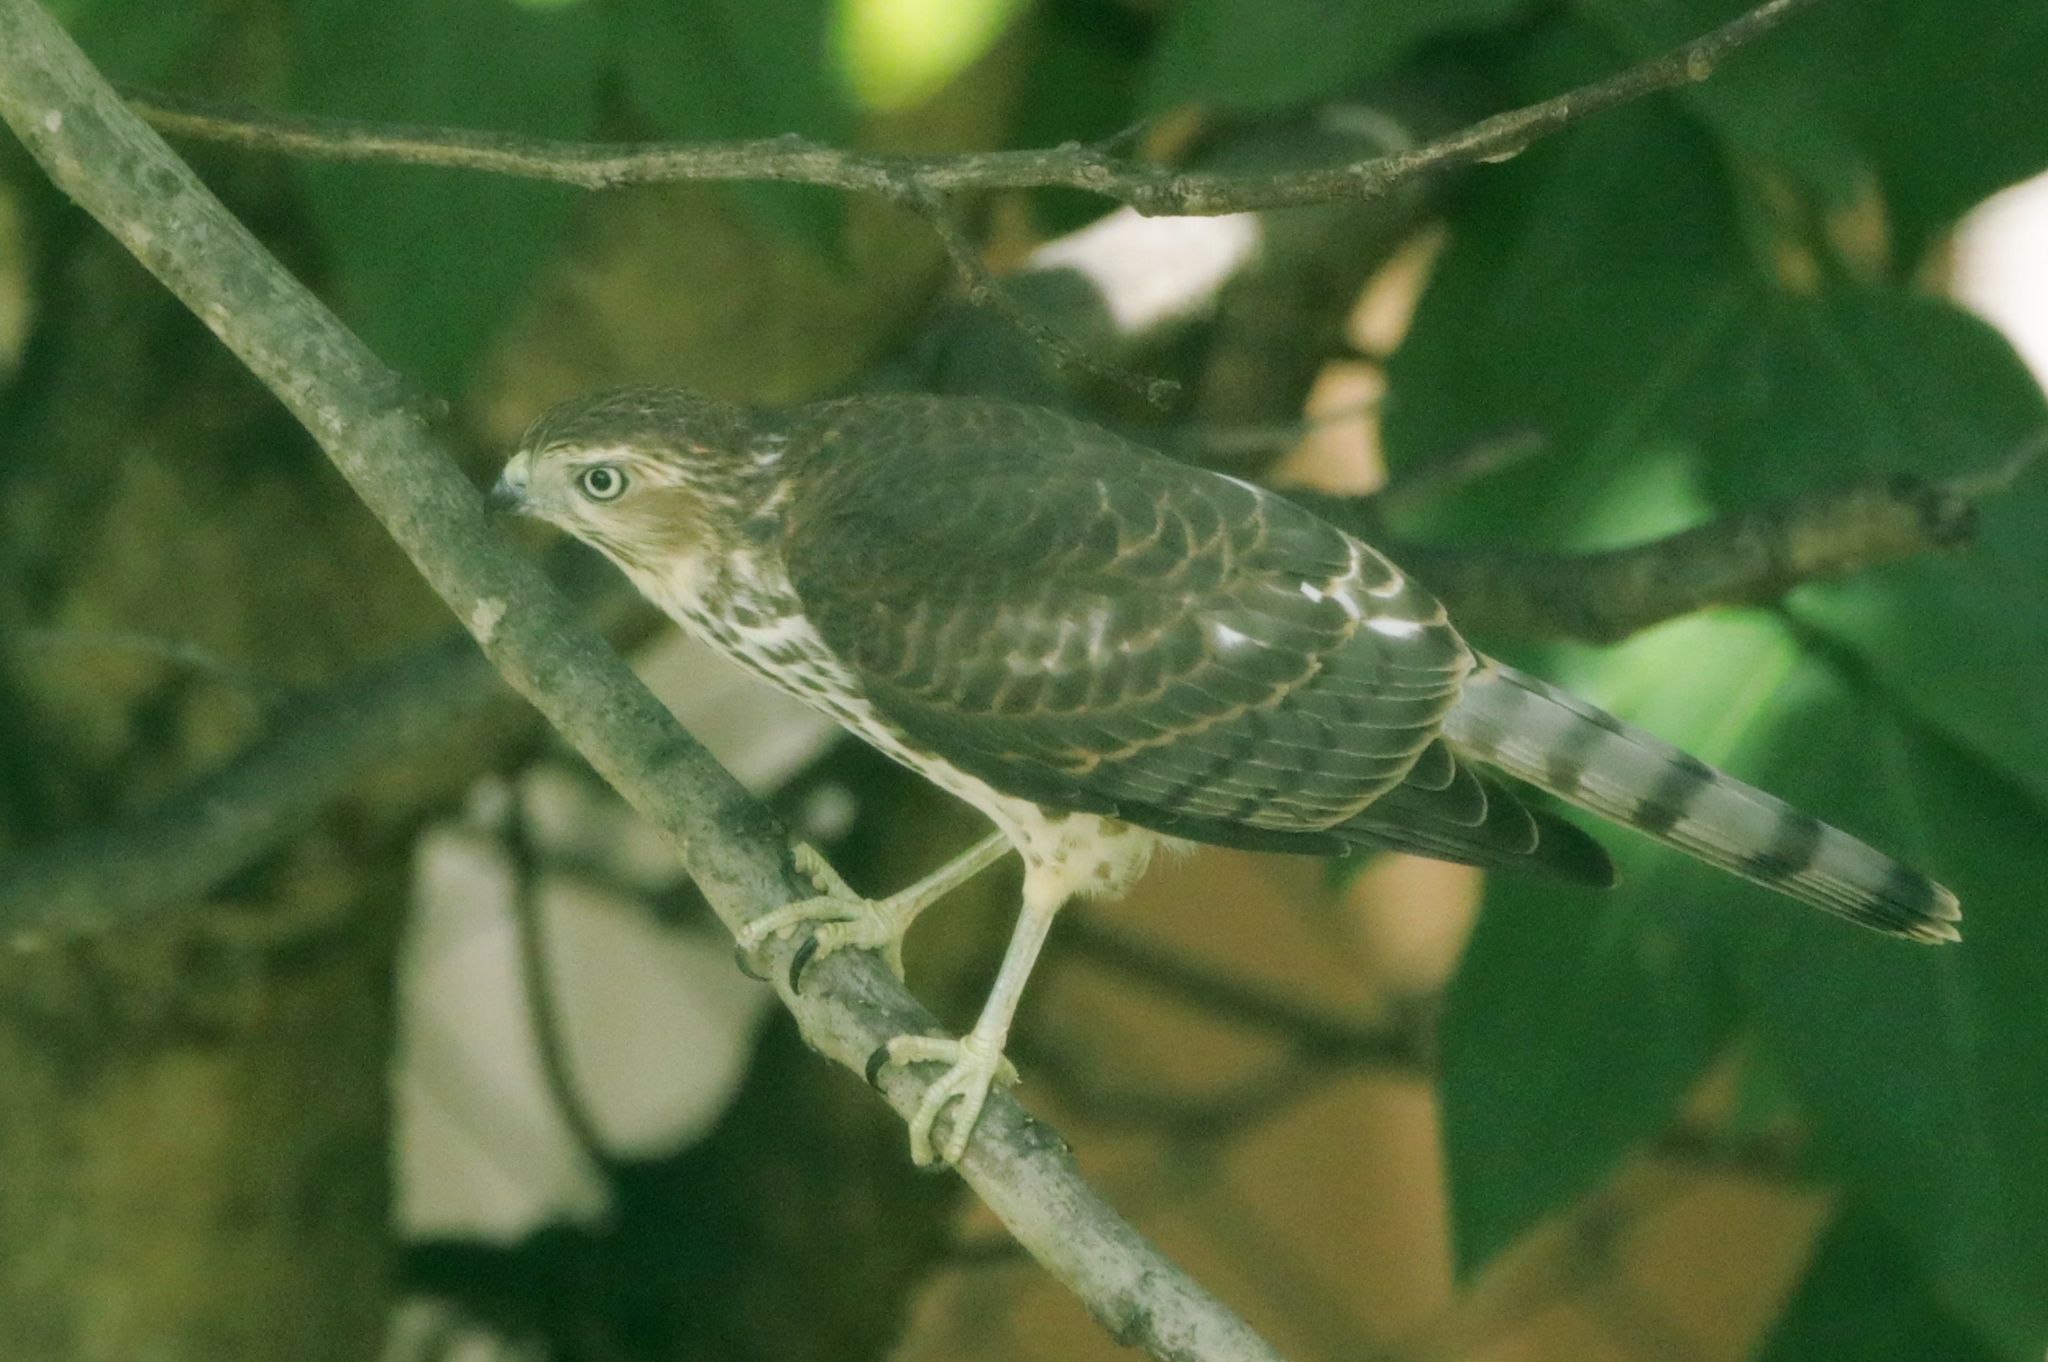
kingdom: Animalia
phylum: Chordata
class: Aves
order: Accipitriformes
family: Accipitridae
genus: Accipiter
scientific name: Accipiter badius
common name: Shikra
